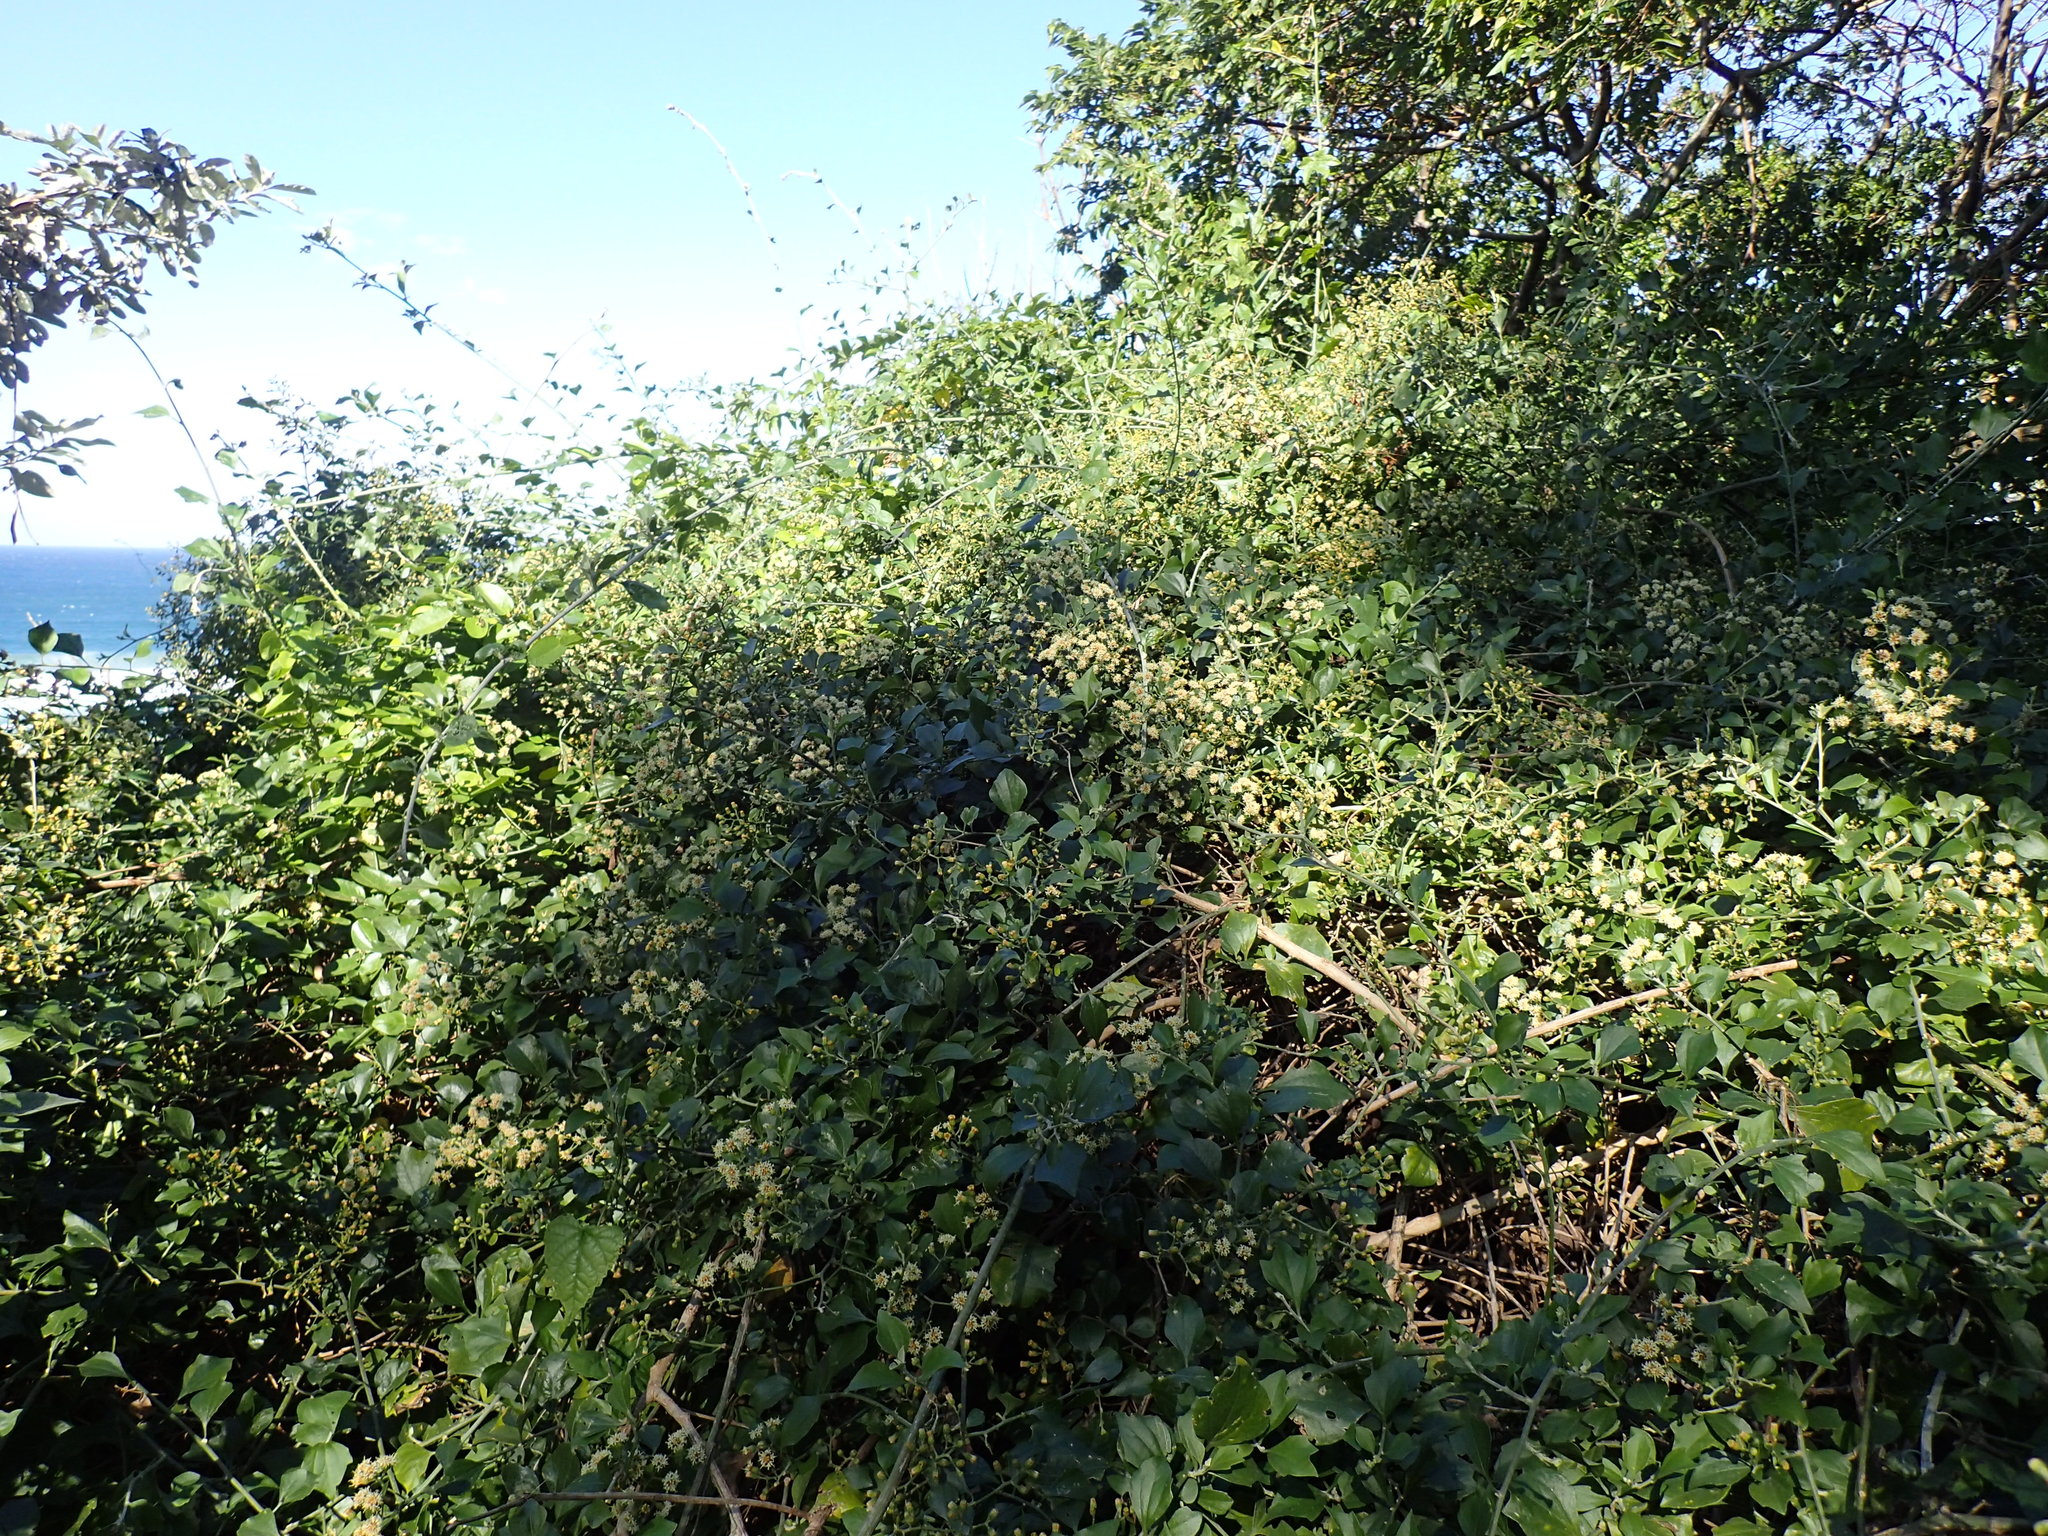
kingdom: Plantae
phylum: Tracheophyta
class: Magnoliopsida
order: Asterales
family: Asteraceae
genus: Distephanus
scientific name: Distephanus anisochaetoides
